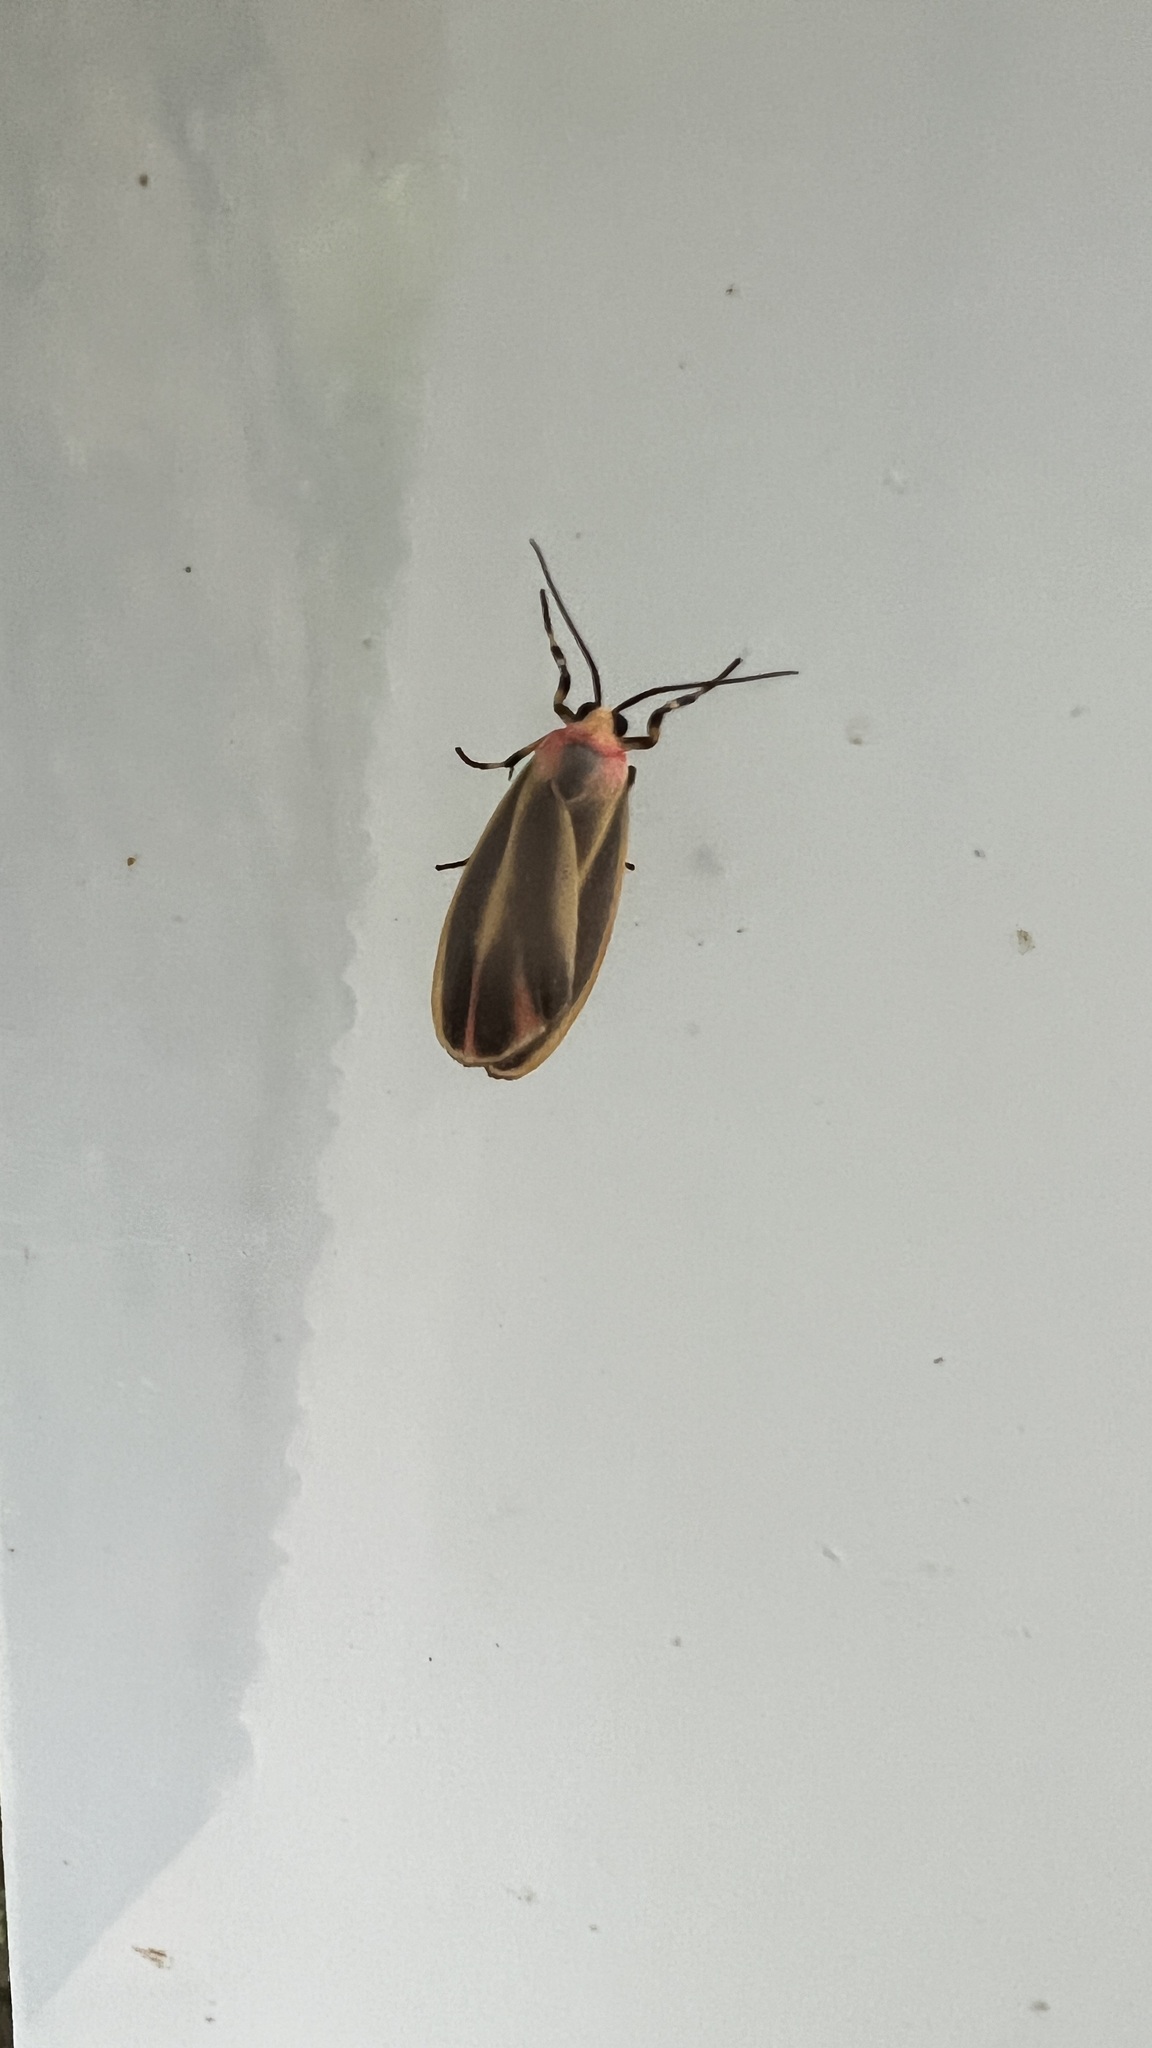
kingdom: Animalia
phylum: Arthropoda
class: Insecta
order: Lepidoptera
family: Erebidae
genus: Hypoprepia
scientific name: Hypoprepia fucosa
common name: Painted lichen moth
